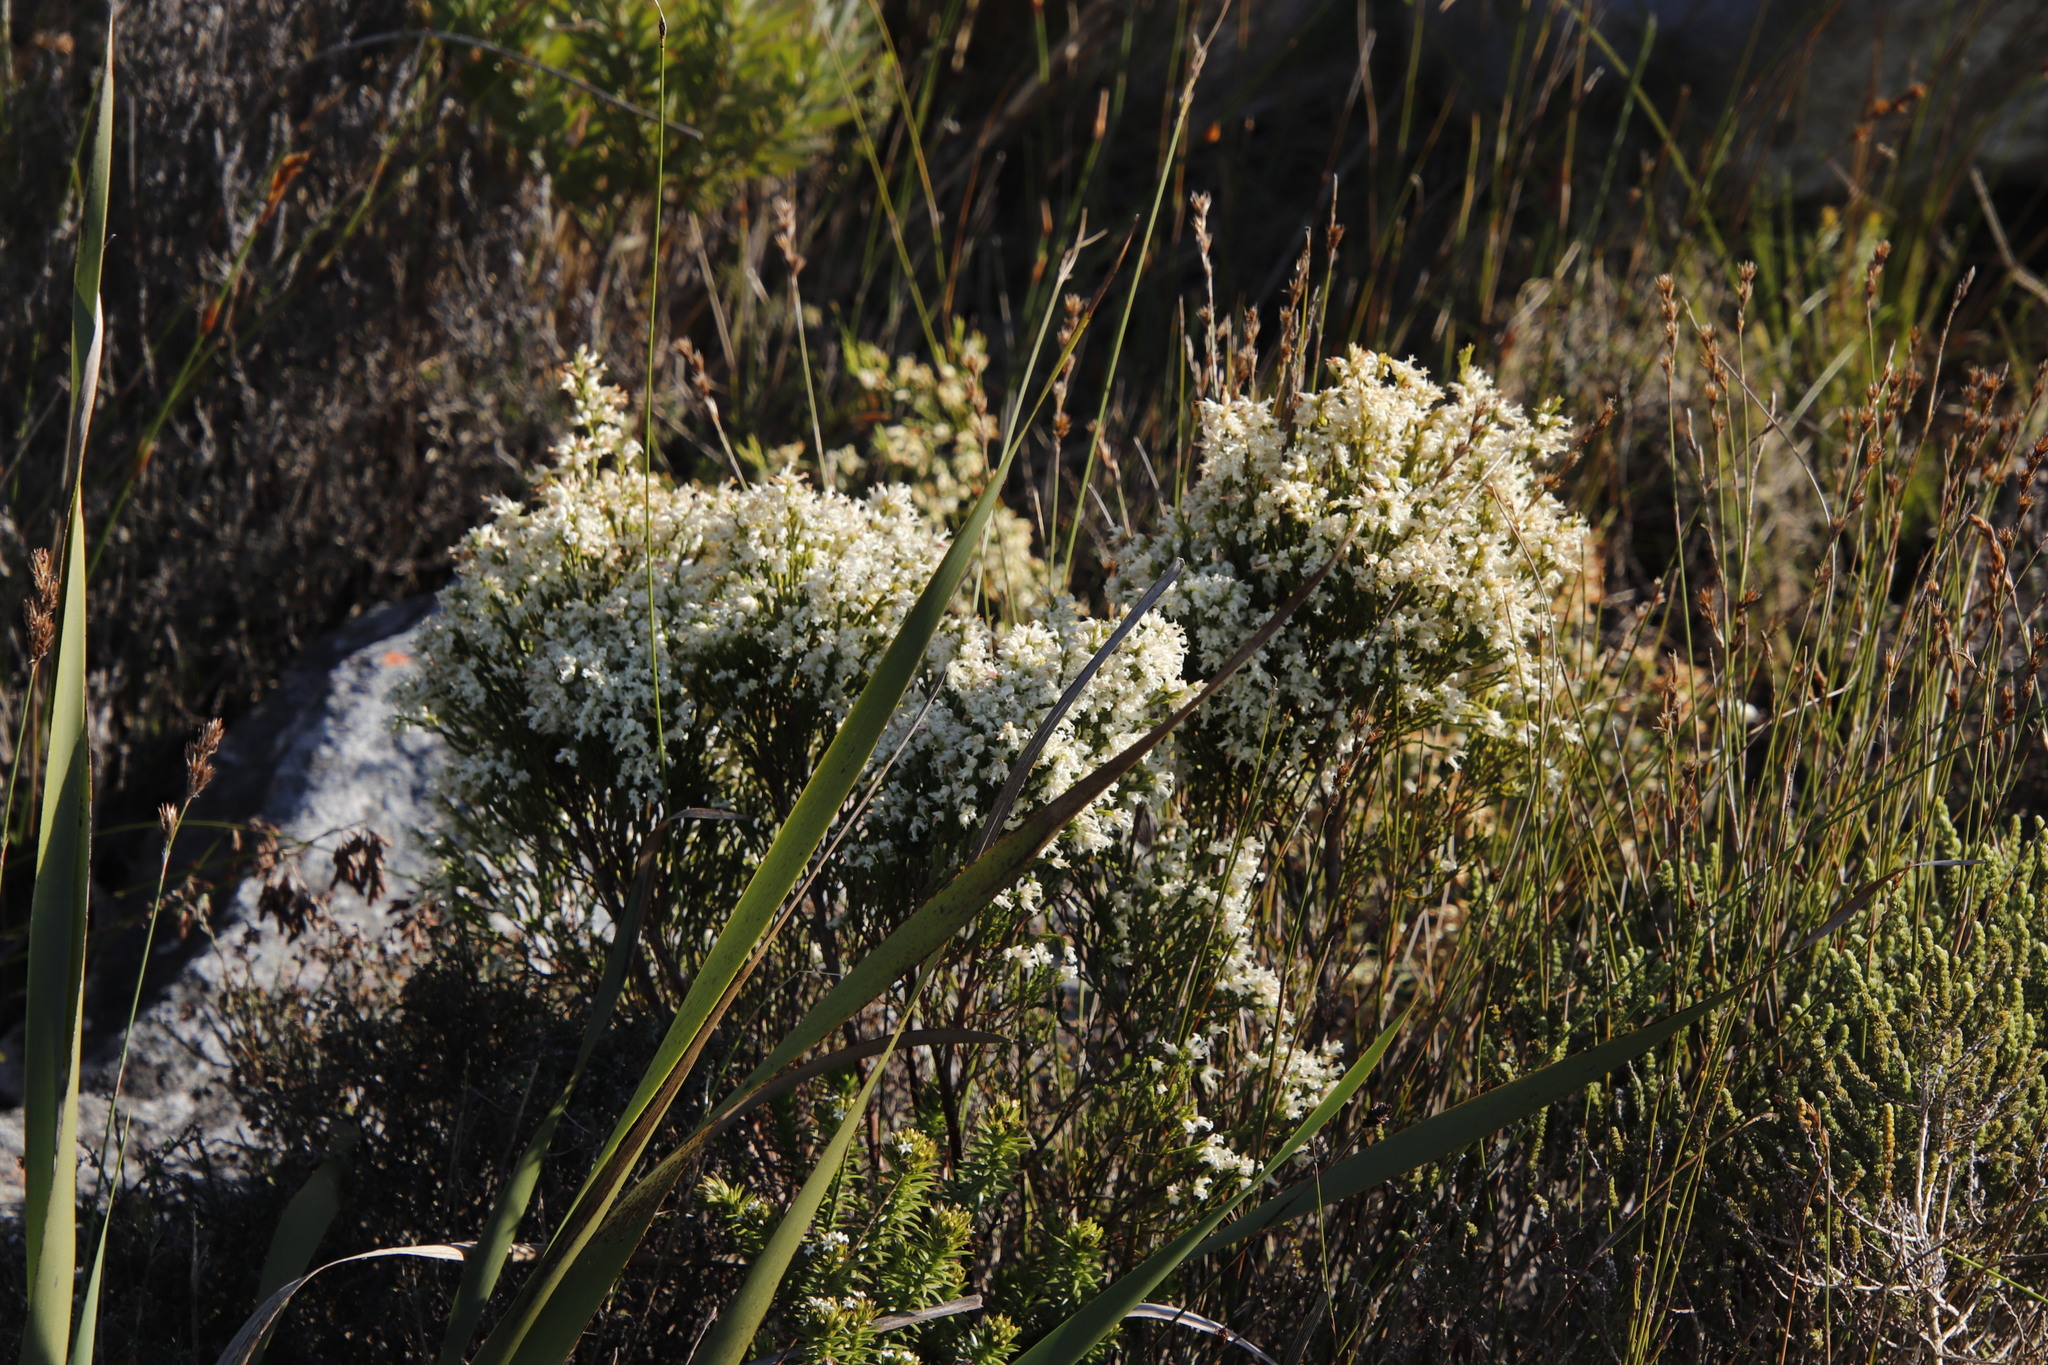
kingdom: Plantae
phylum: Tracheophyta
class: Magnoliopsida
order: Ericales
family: Ericaceae
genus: Erica
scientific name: Erica lutea
